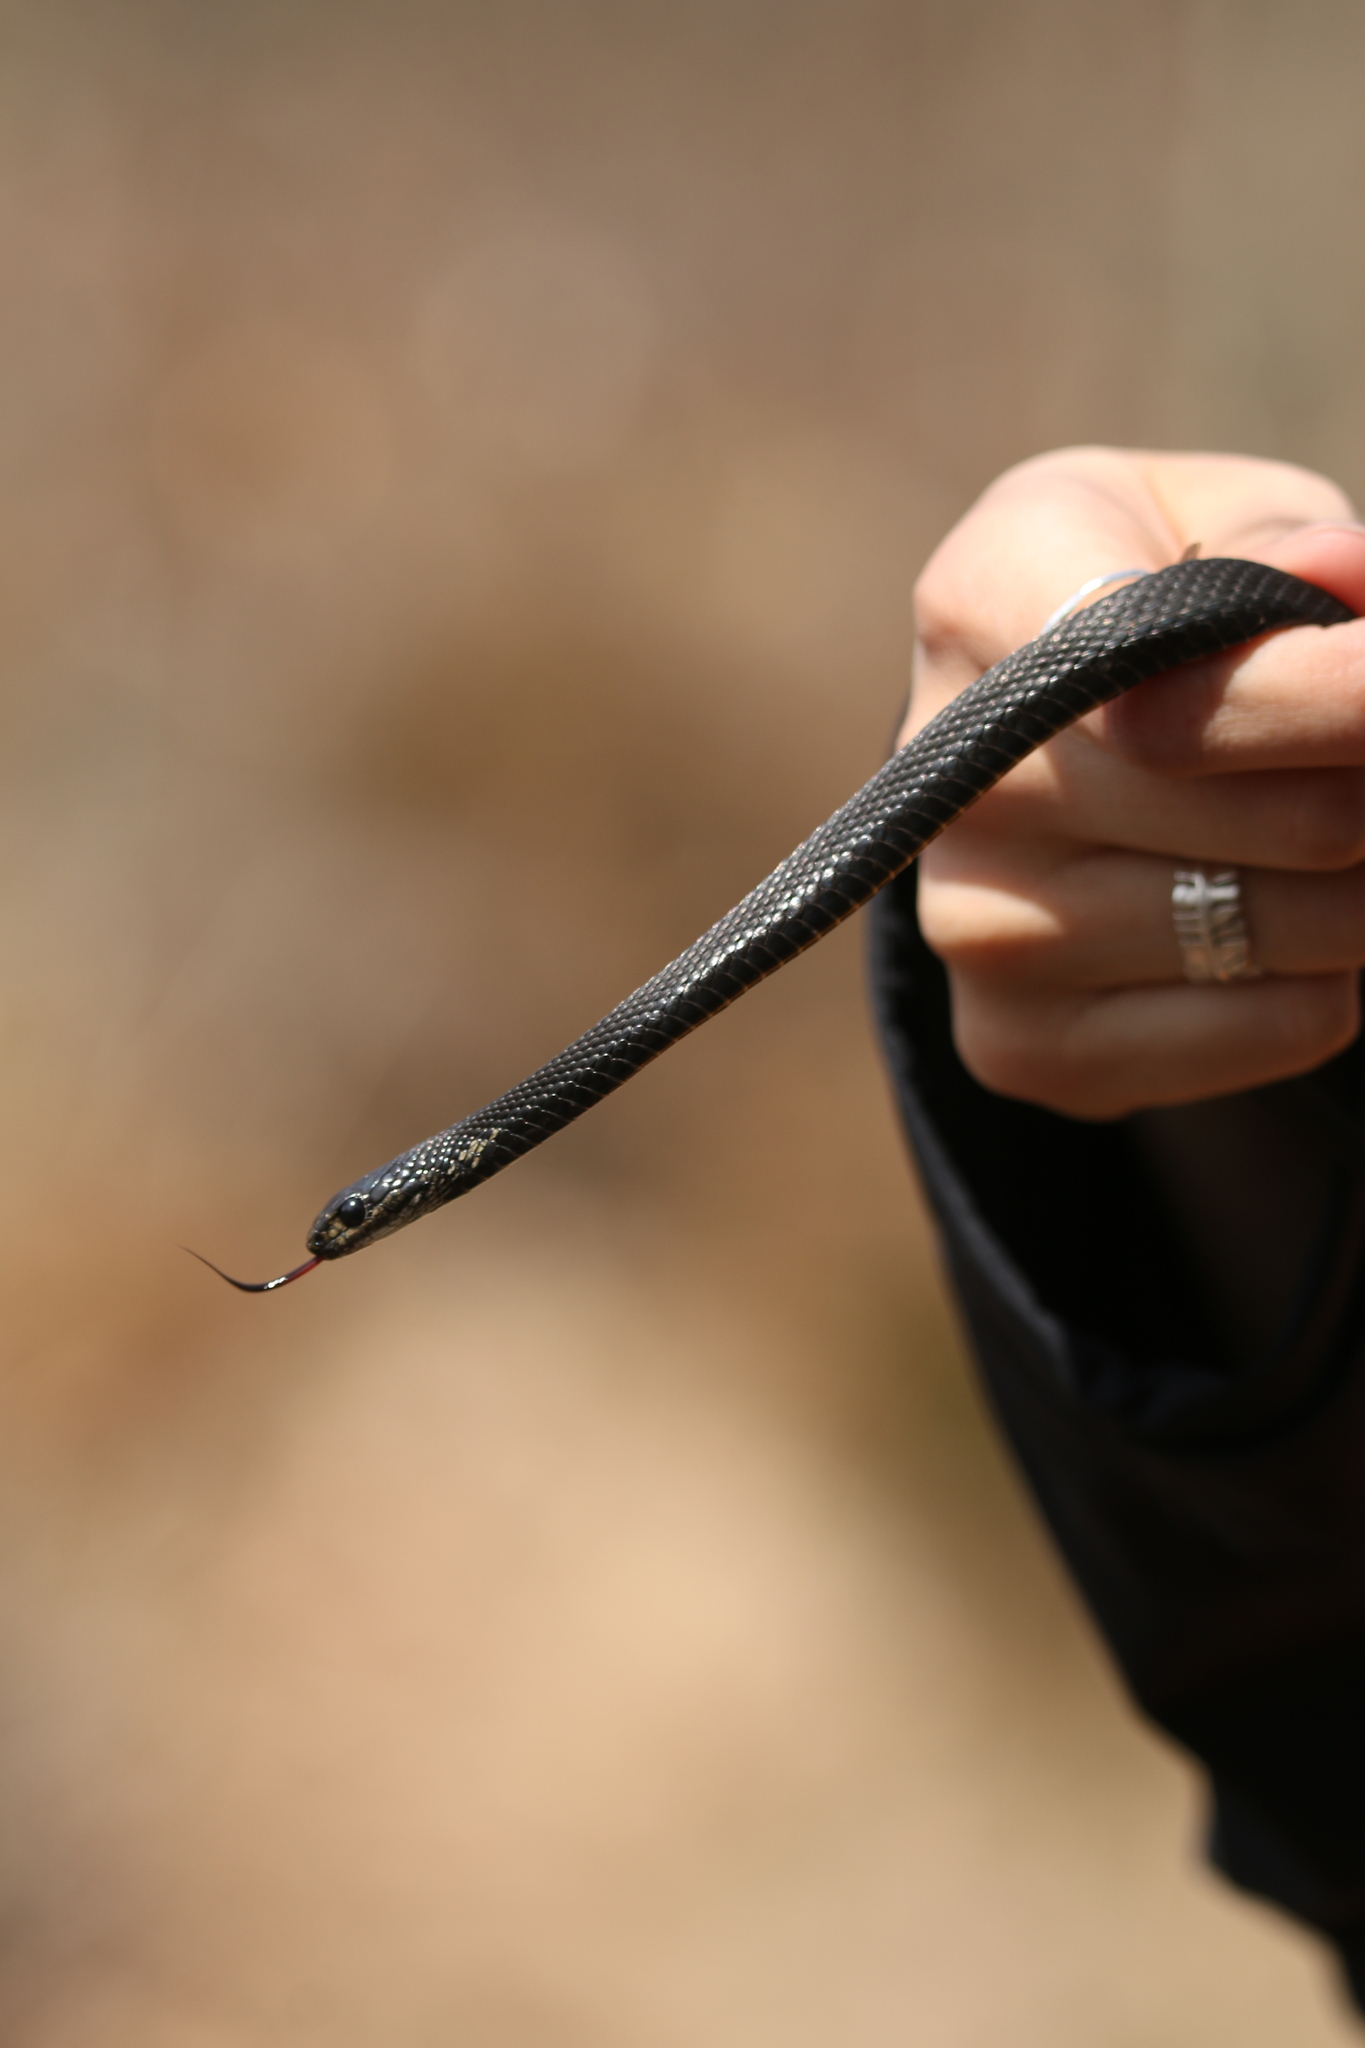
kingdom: Animalia
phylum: Chordata
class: Squamata
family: Colubridae
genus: Thamnophis
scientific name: Thamnophis sirtalis
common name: Common garter snake
